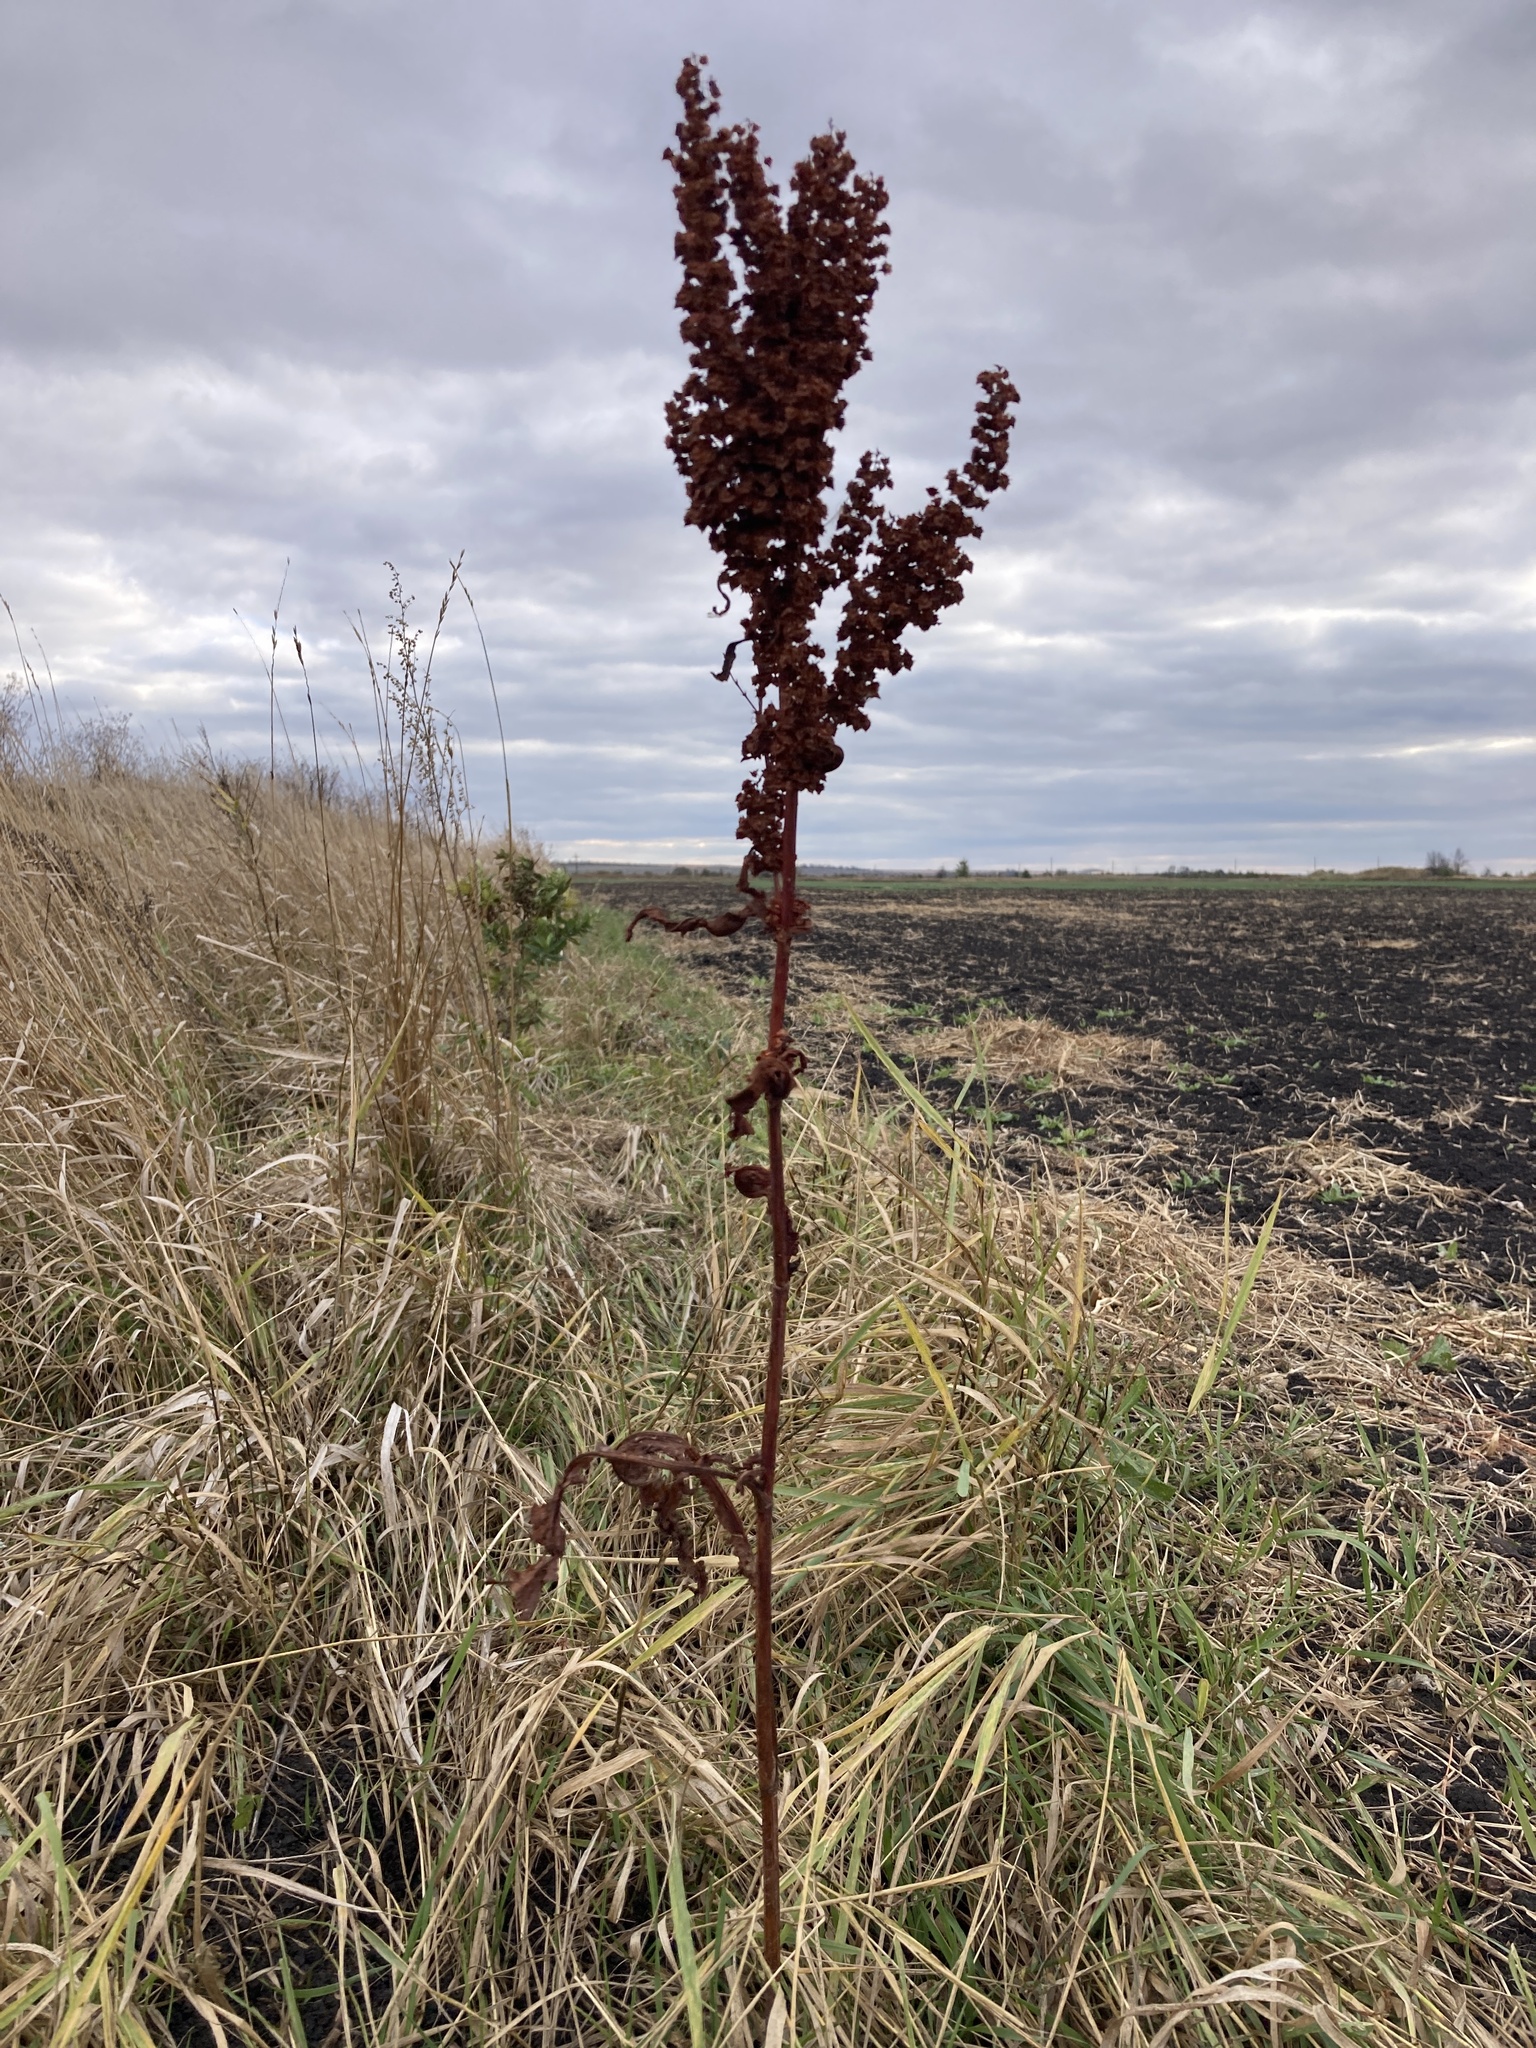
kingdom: Plantae
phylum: Tracheophyta
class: Magnoliopsida
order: Caryophyllales
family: Polygonaceae
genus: Rumex
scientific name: Rumex crispus
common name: Curled dock
